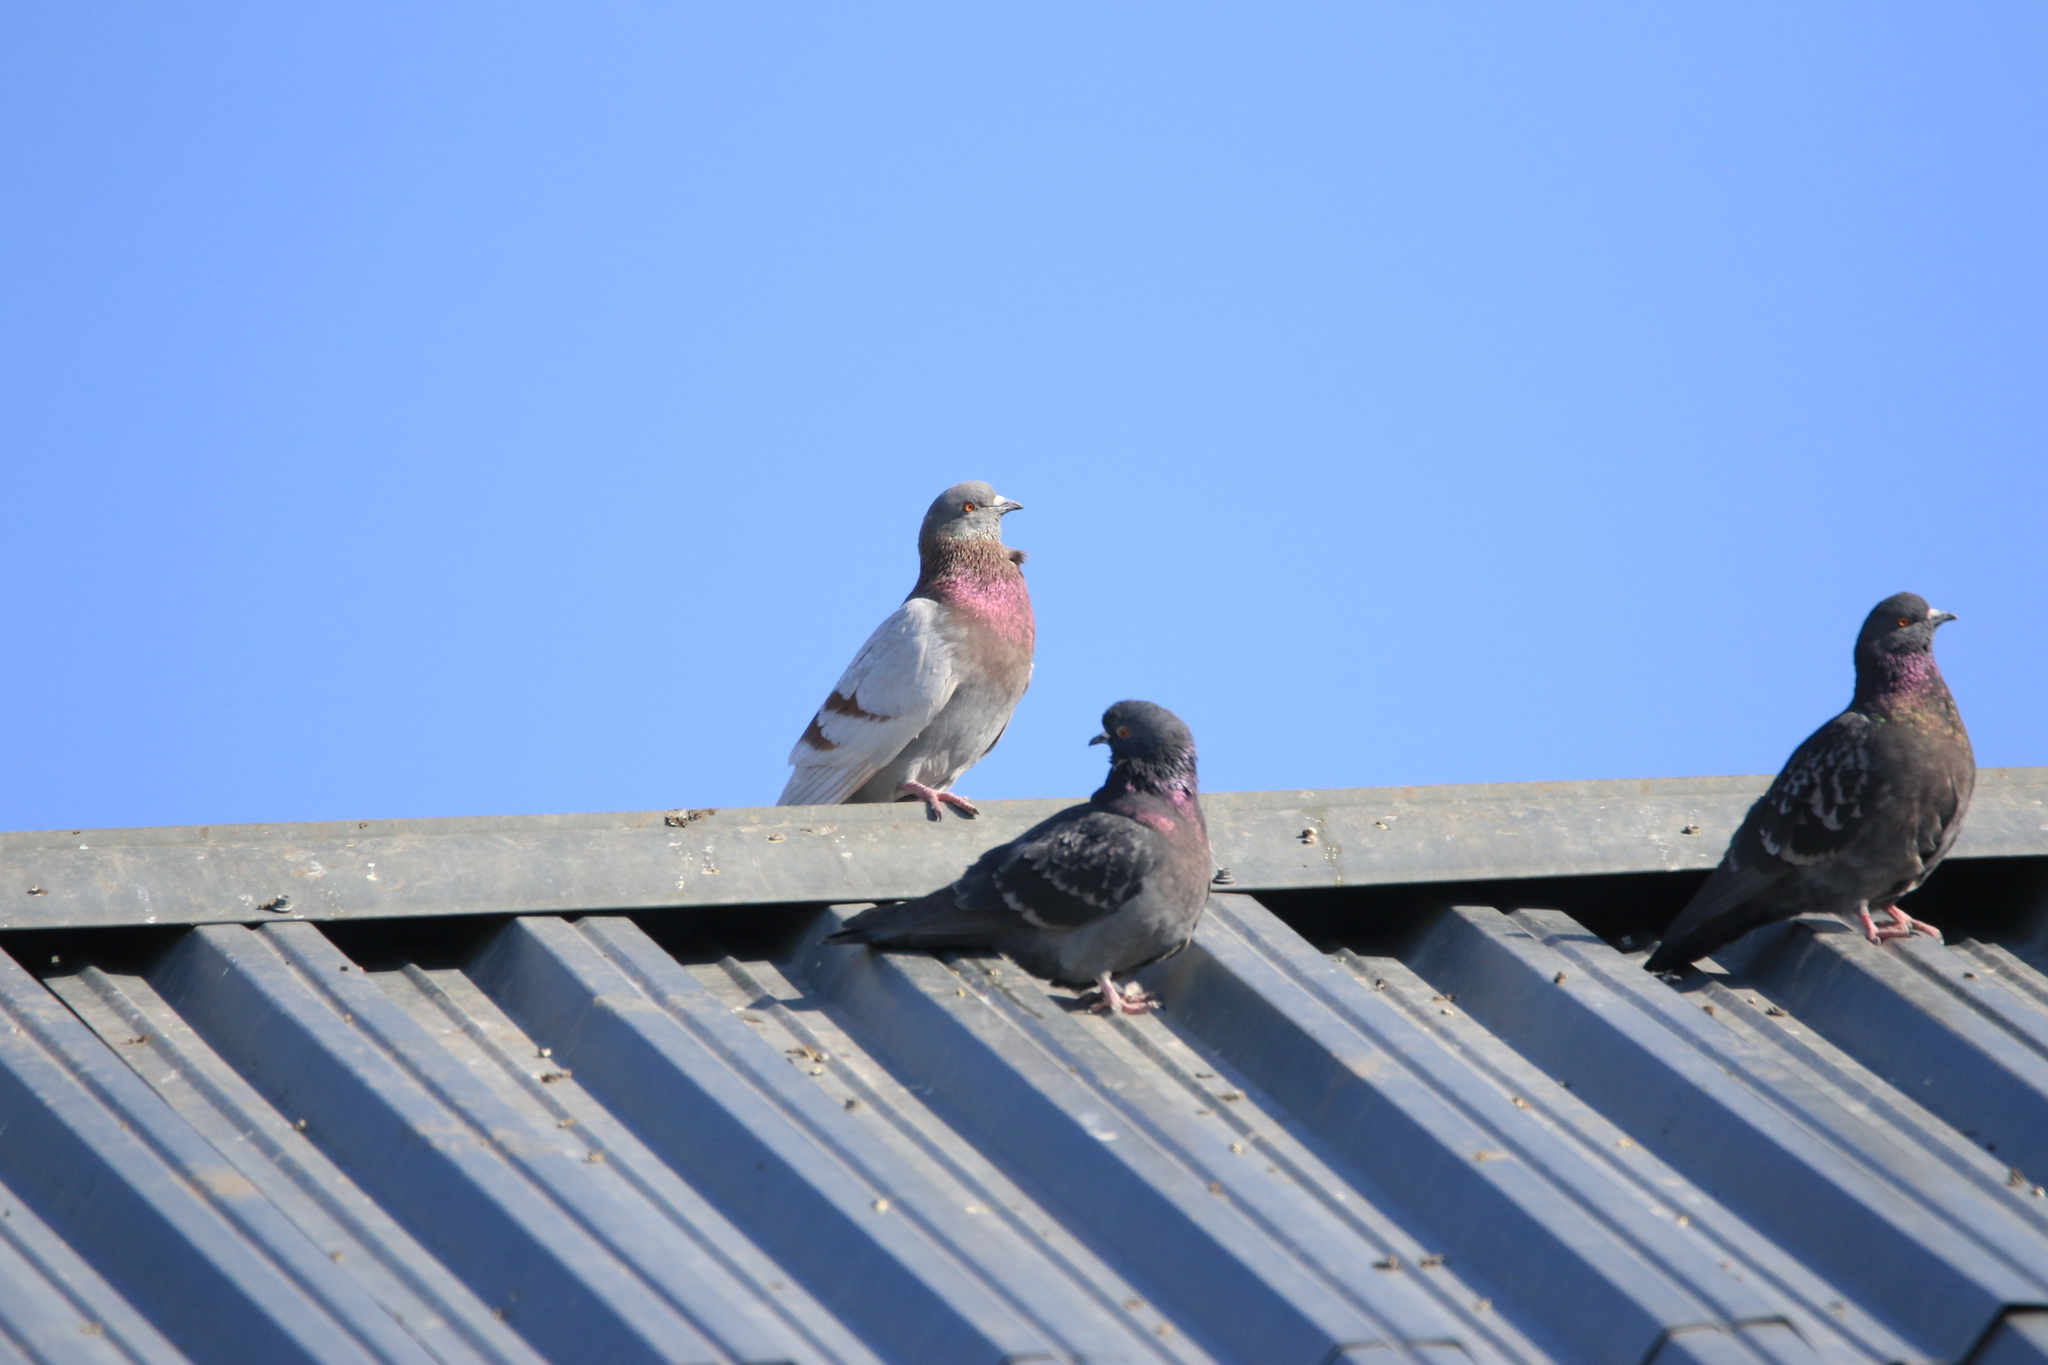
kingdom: Animalia
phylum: Chordata
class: Aves
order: Columbiformes
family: Columbidae
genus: Columba
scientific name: Columba livia
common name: Rock pigeon
